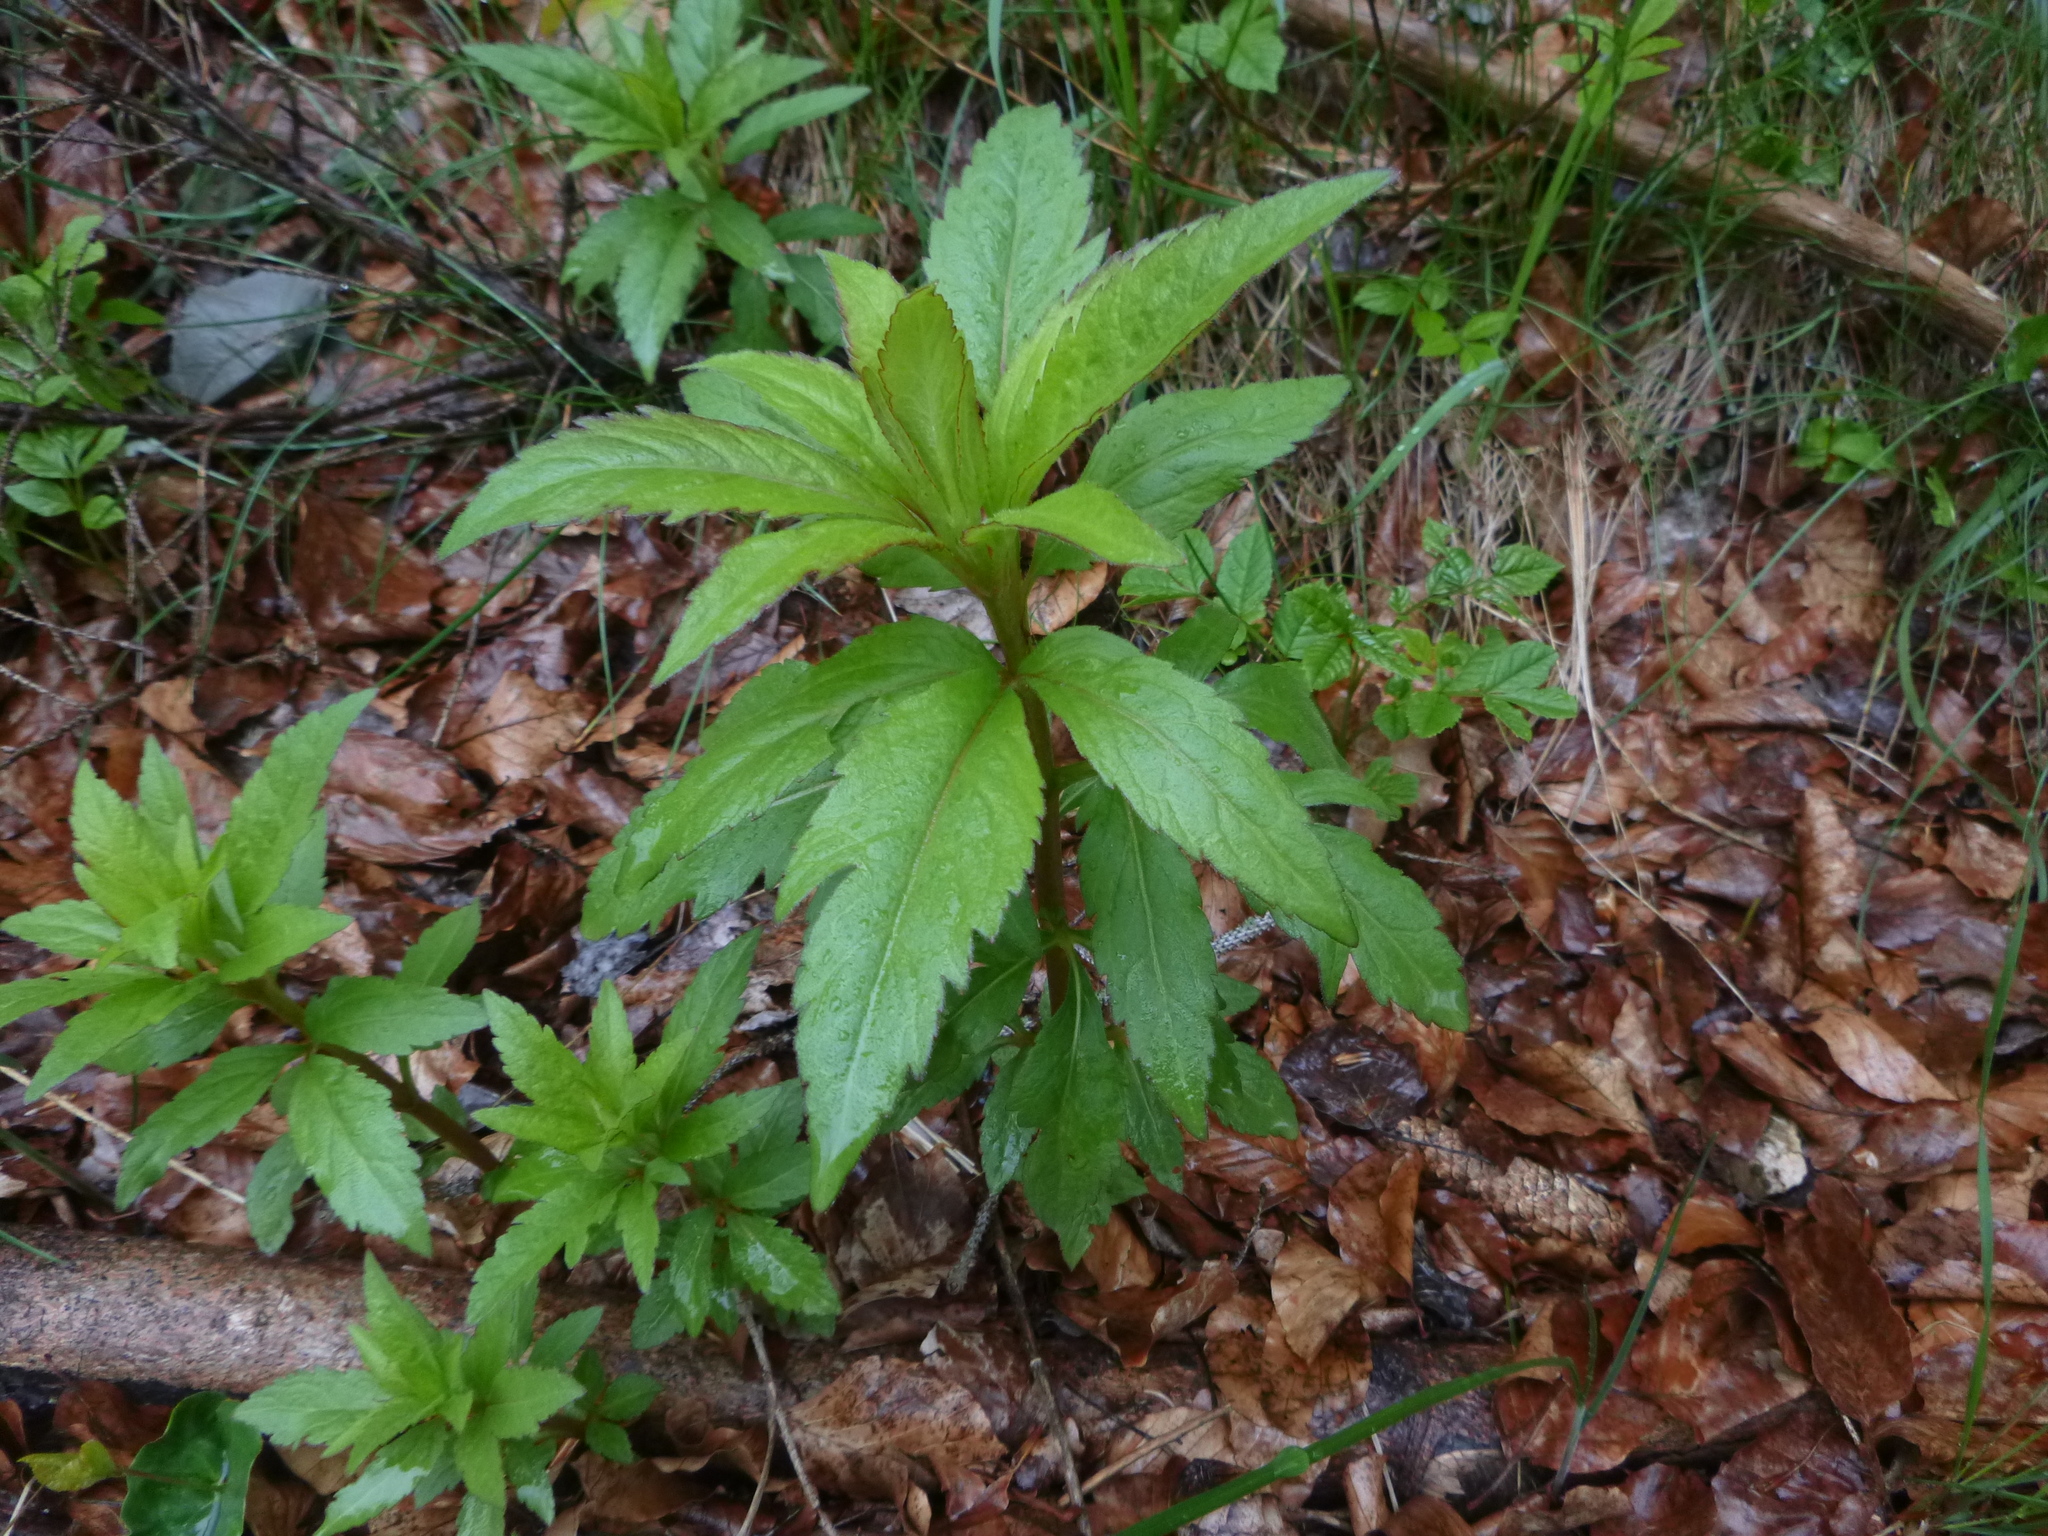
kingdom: Plantae
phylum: Tracheophyta
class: Magnoliopsida
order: Asterales
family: Asteraceae
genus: Eupatorium
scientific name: Eupatorium cannabinum
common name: Hemp-agrimony
